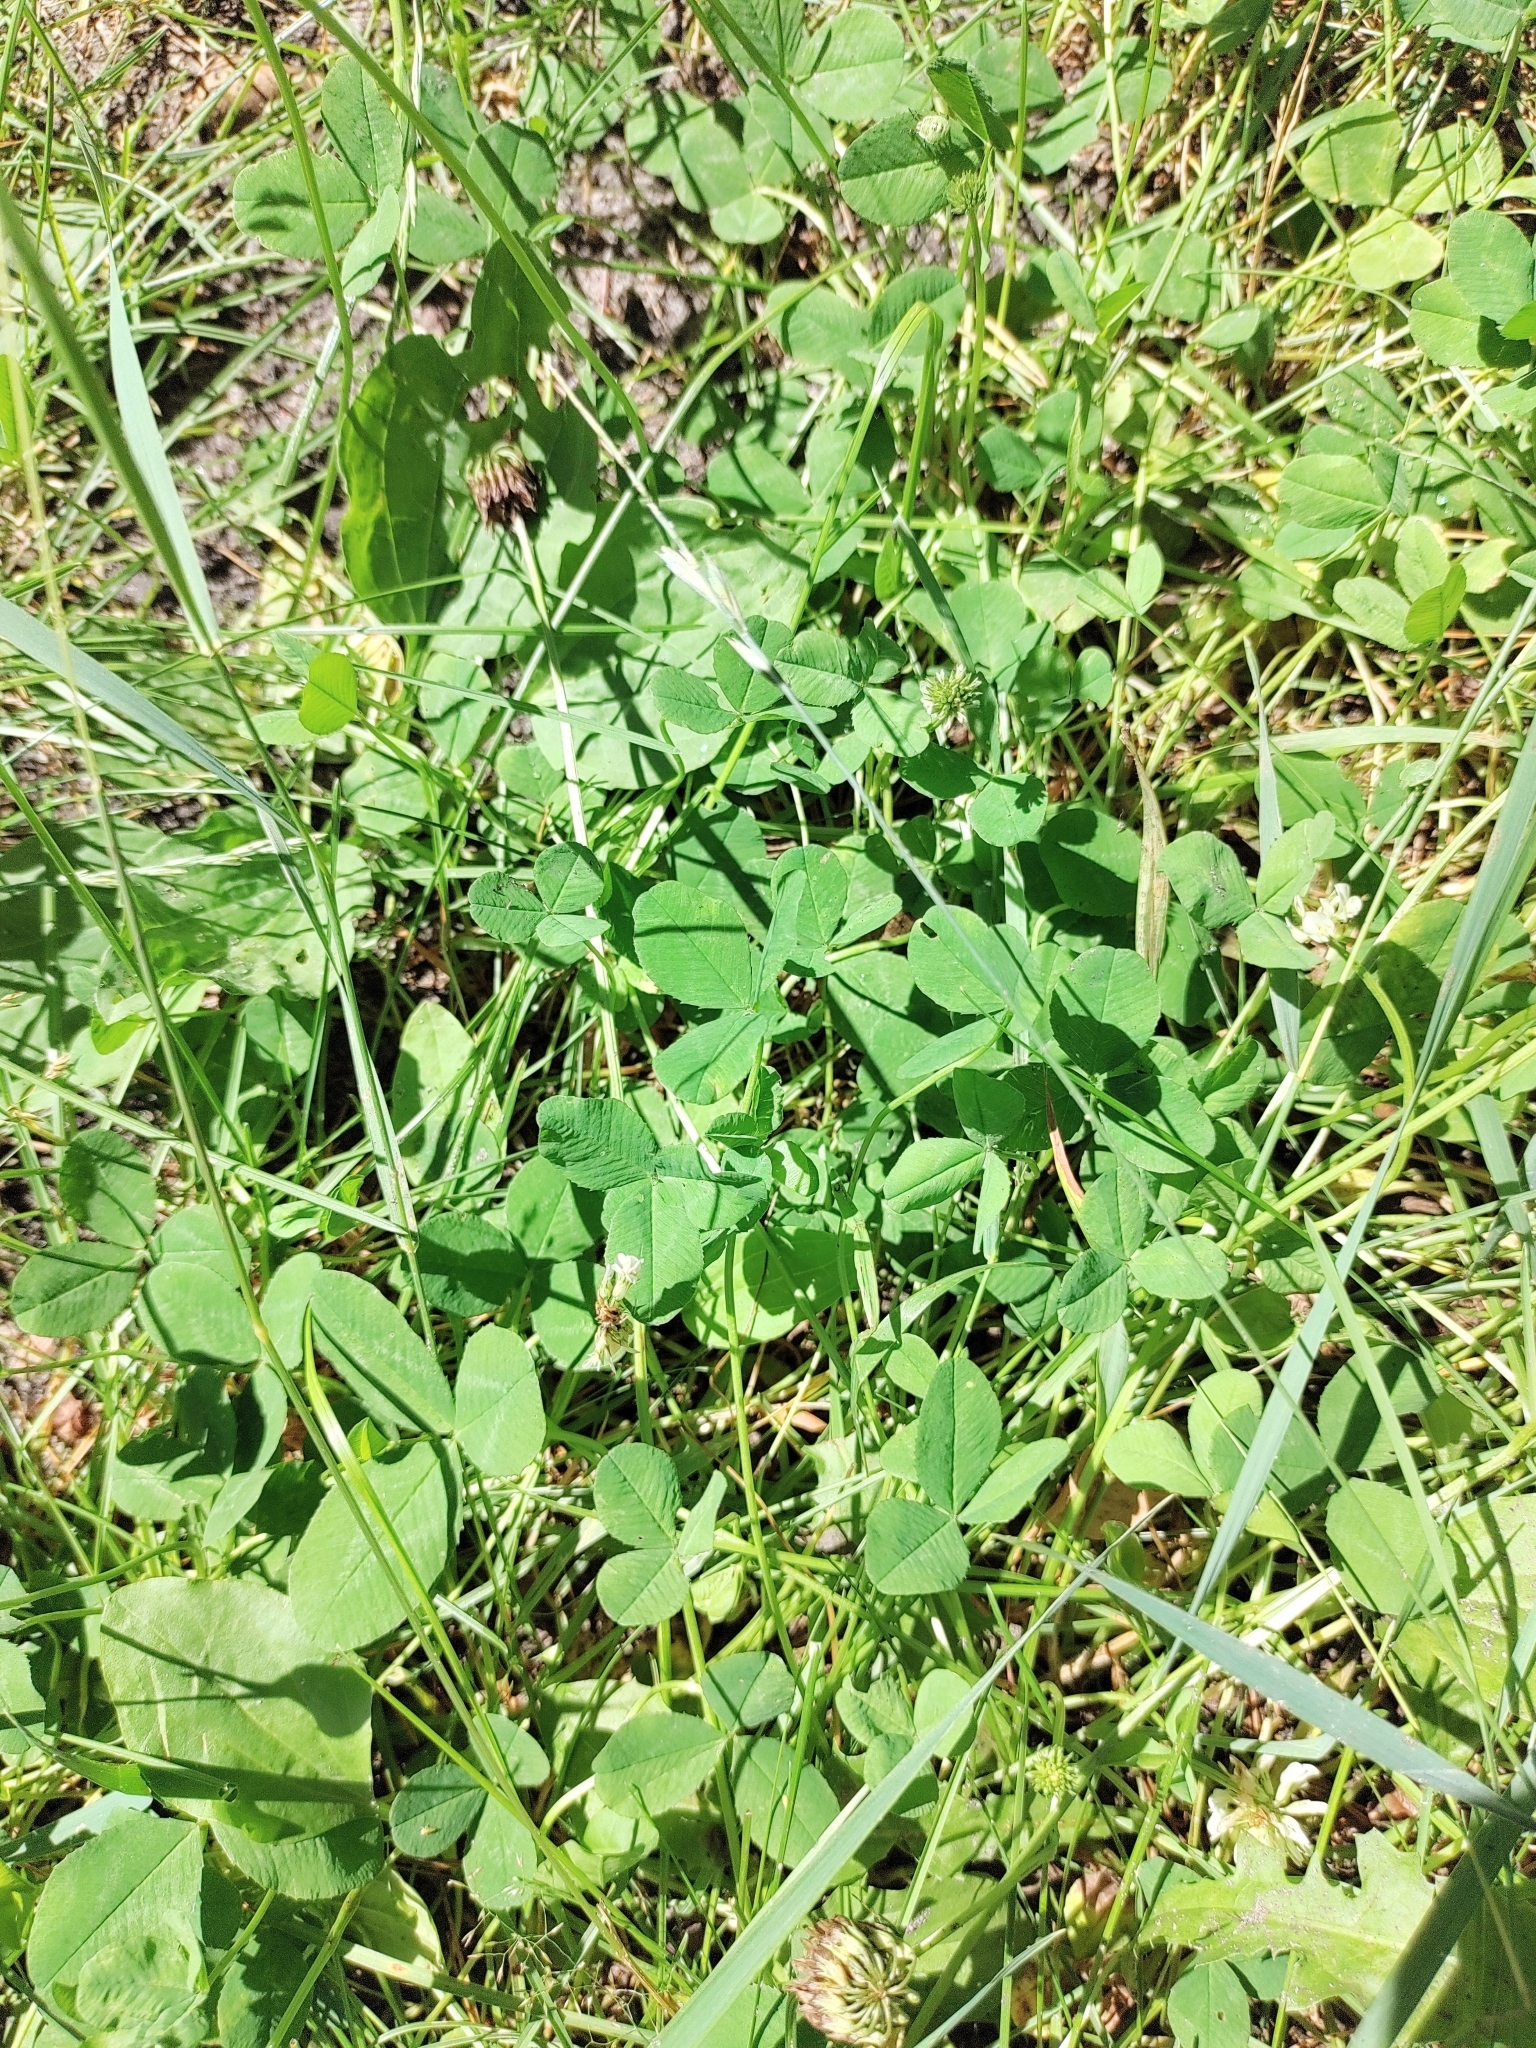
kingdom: Plantae
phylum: Tracheophyta
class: Magnoliopsida
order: Fabales
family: Fabaceae
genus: Trifolium
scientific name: Trifolium repens
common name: White clover
